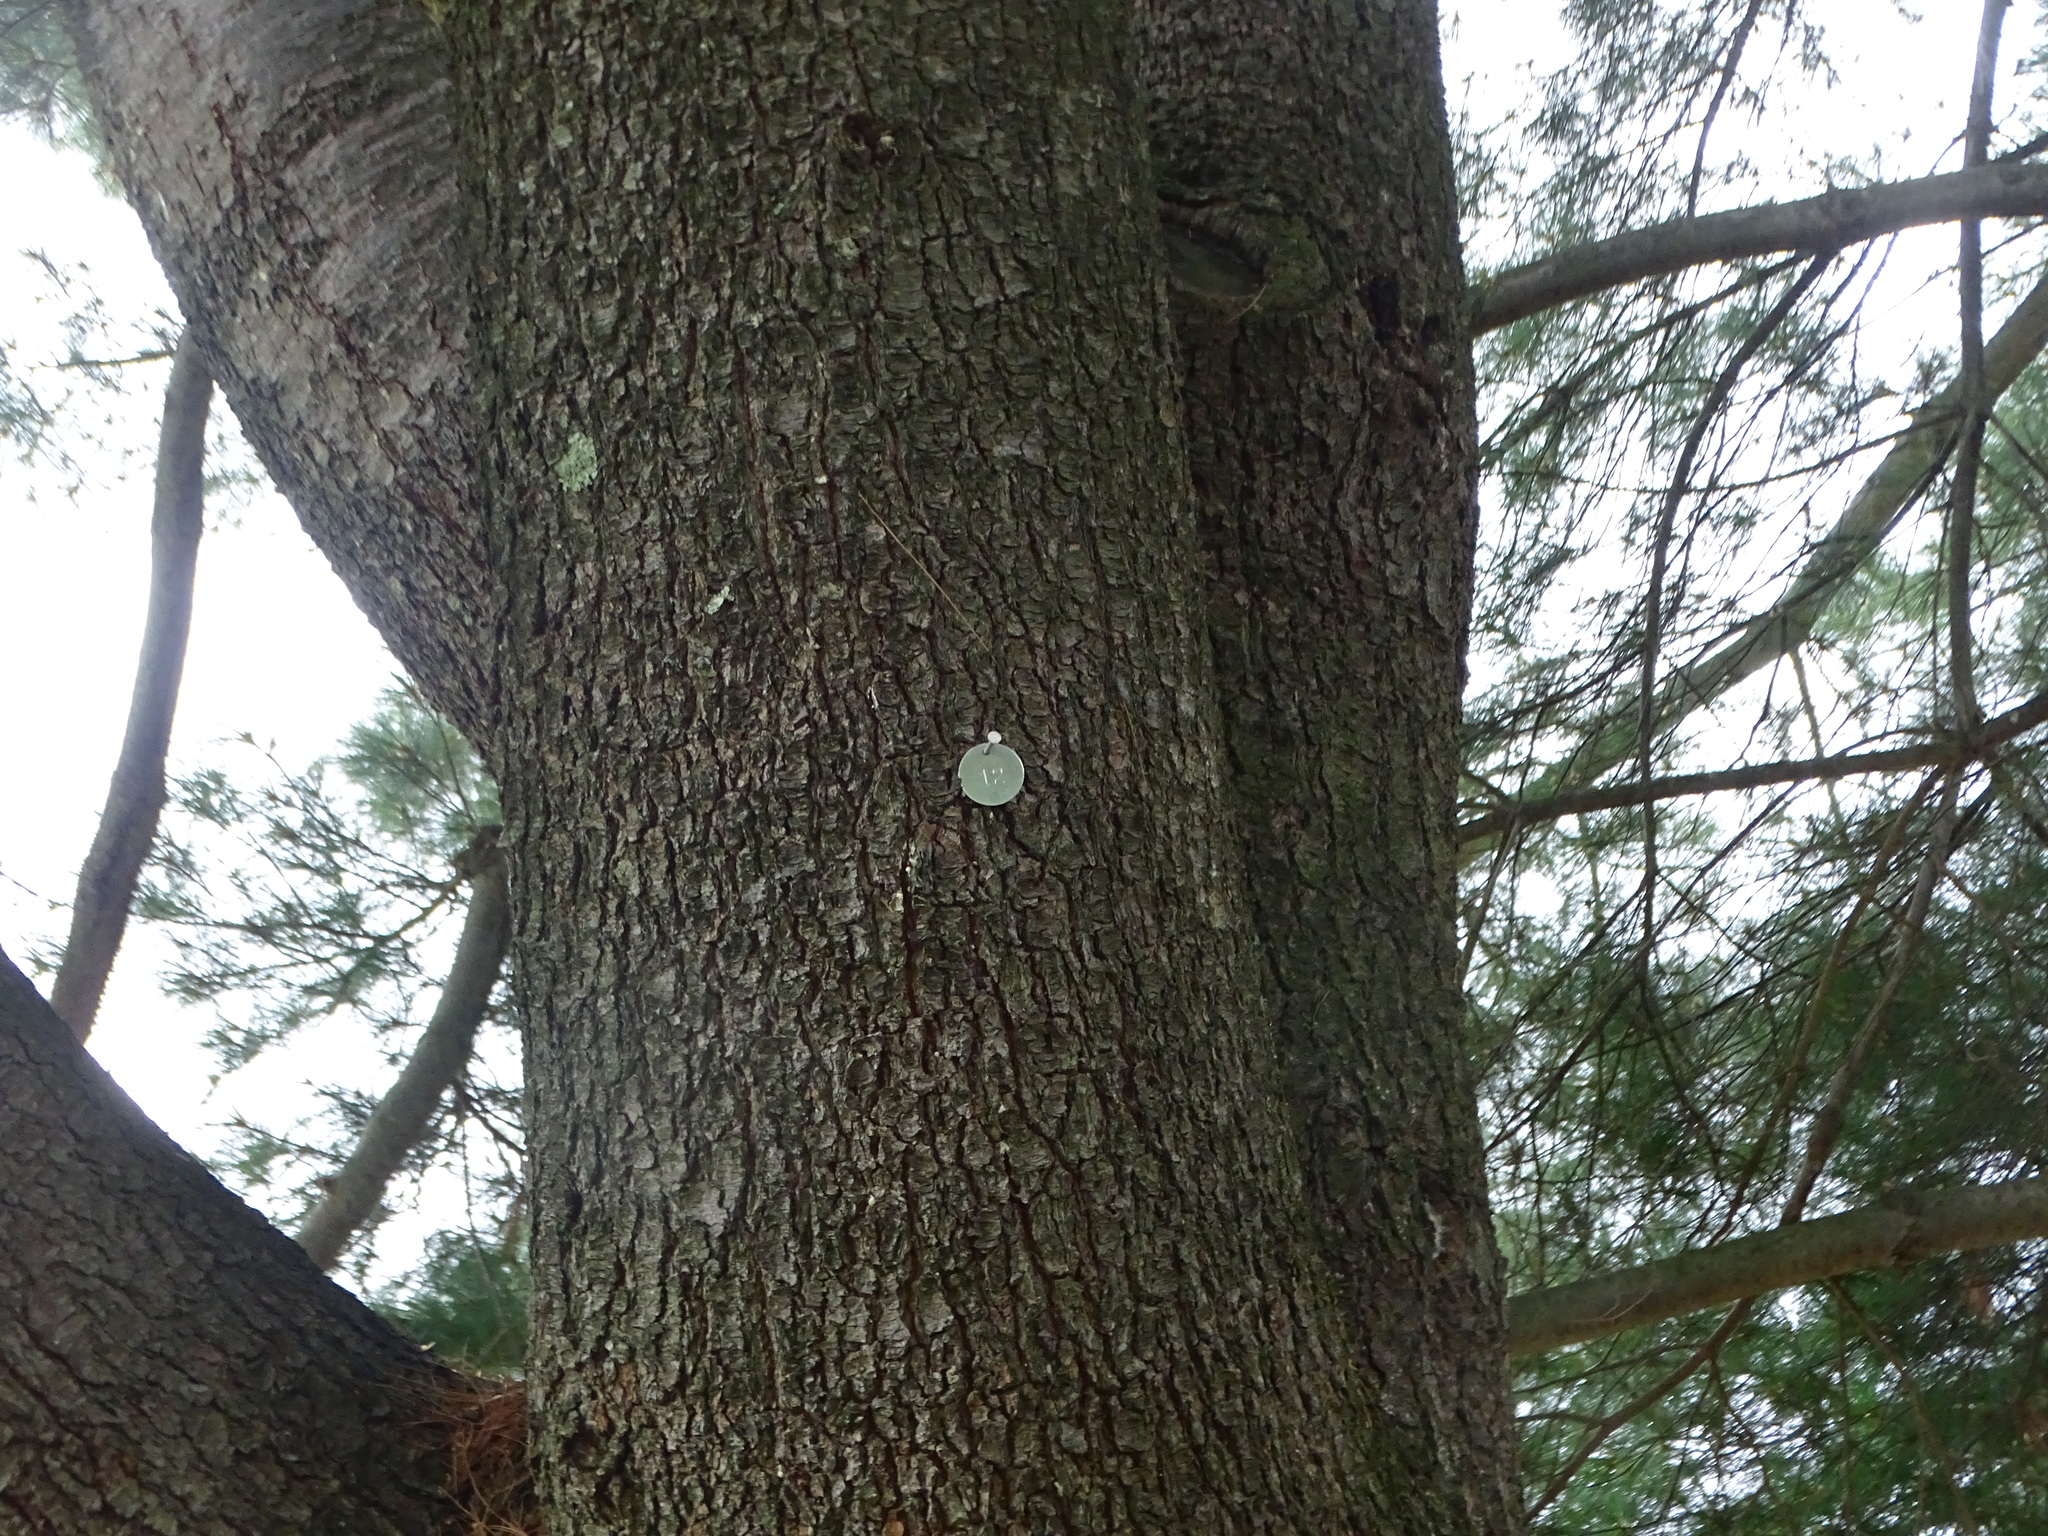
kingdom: Plantae
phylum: Tracheophyta
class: Pinopsida
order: Pinales
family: Pinaceae
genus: Pinus
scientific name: Pinus strobus
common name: Weymouth pine
